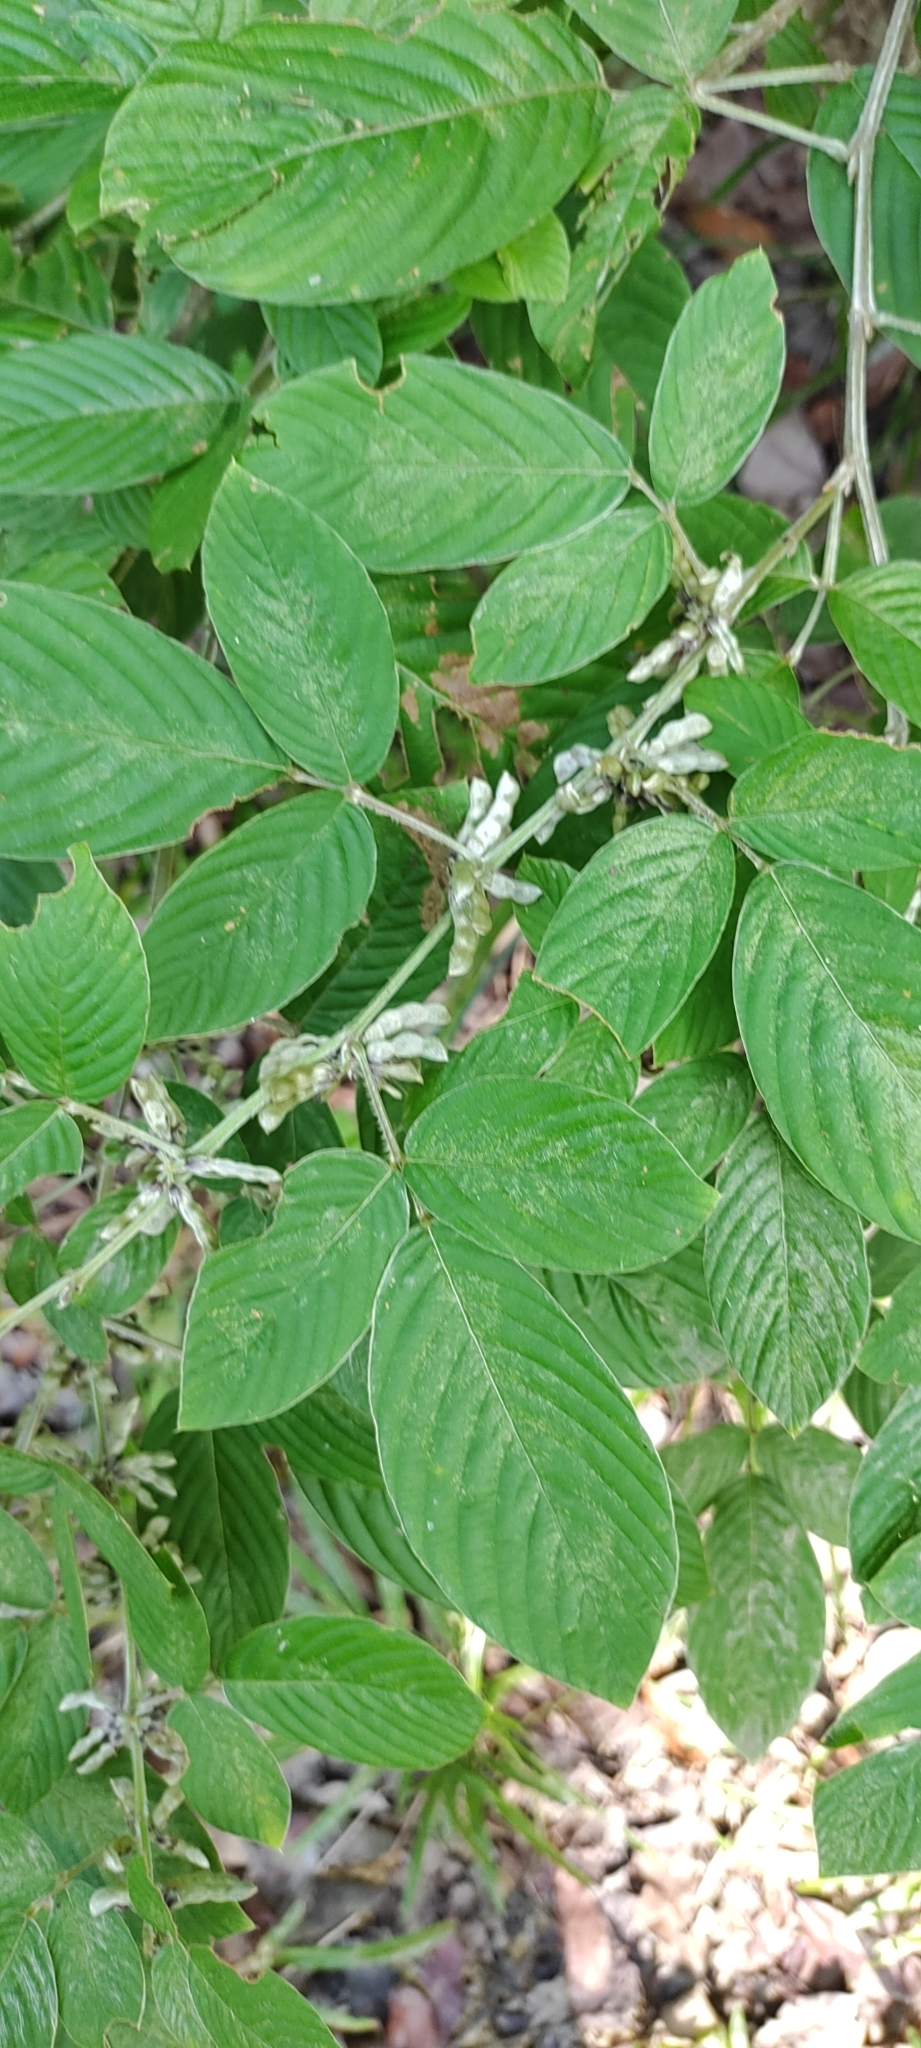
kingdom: Plantae
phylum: Tracheophyta
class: Magnoliopsida
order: Fabales
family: Fabaceae
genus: Dendrolobium
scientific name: Dendrolobium triangulare
